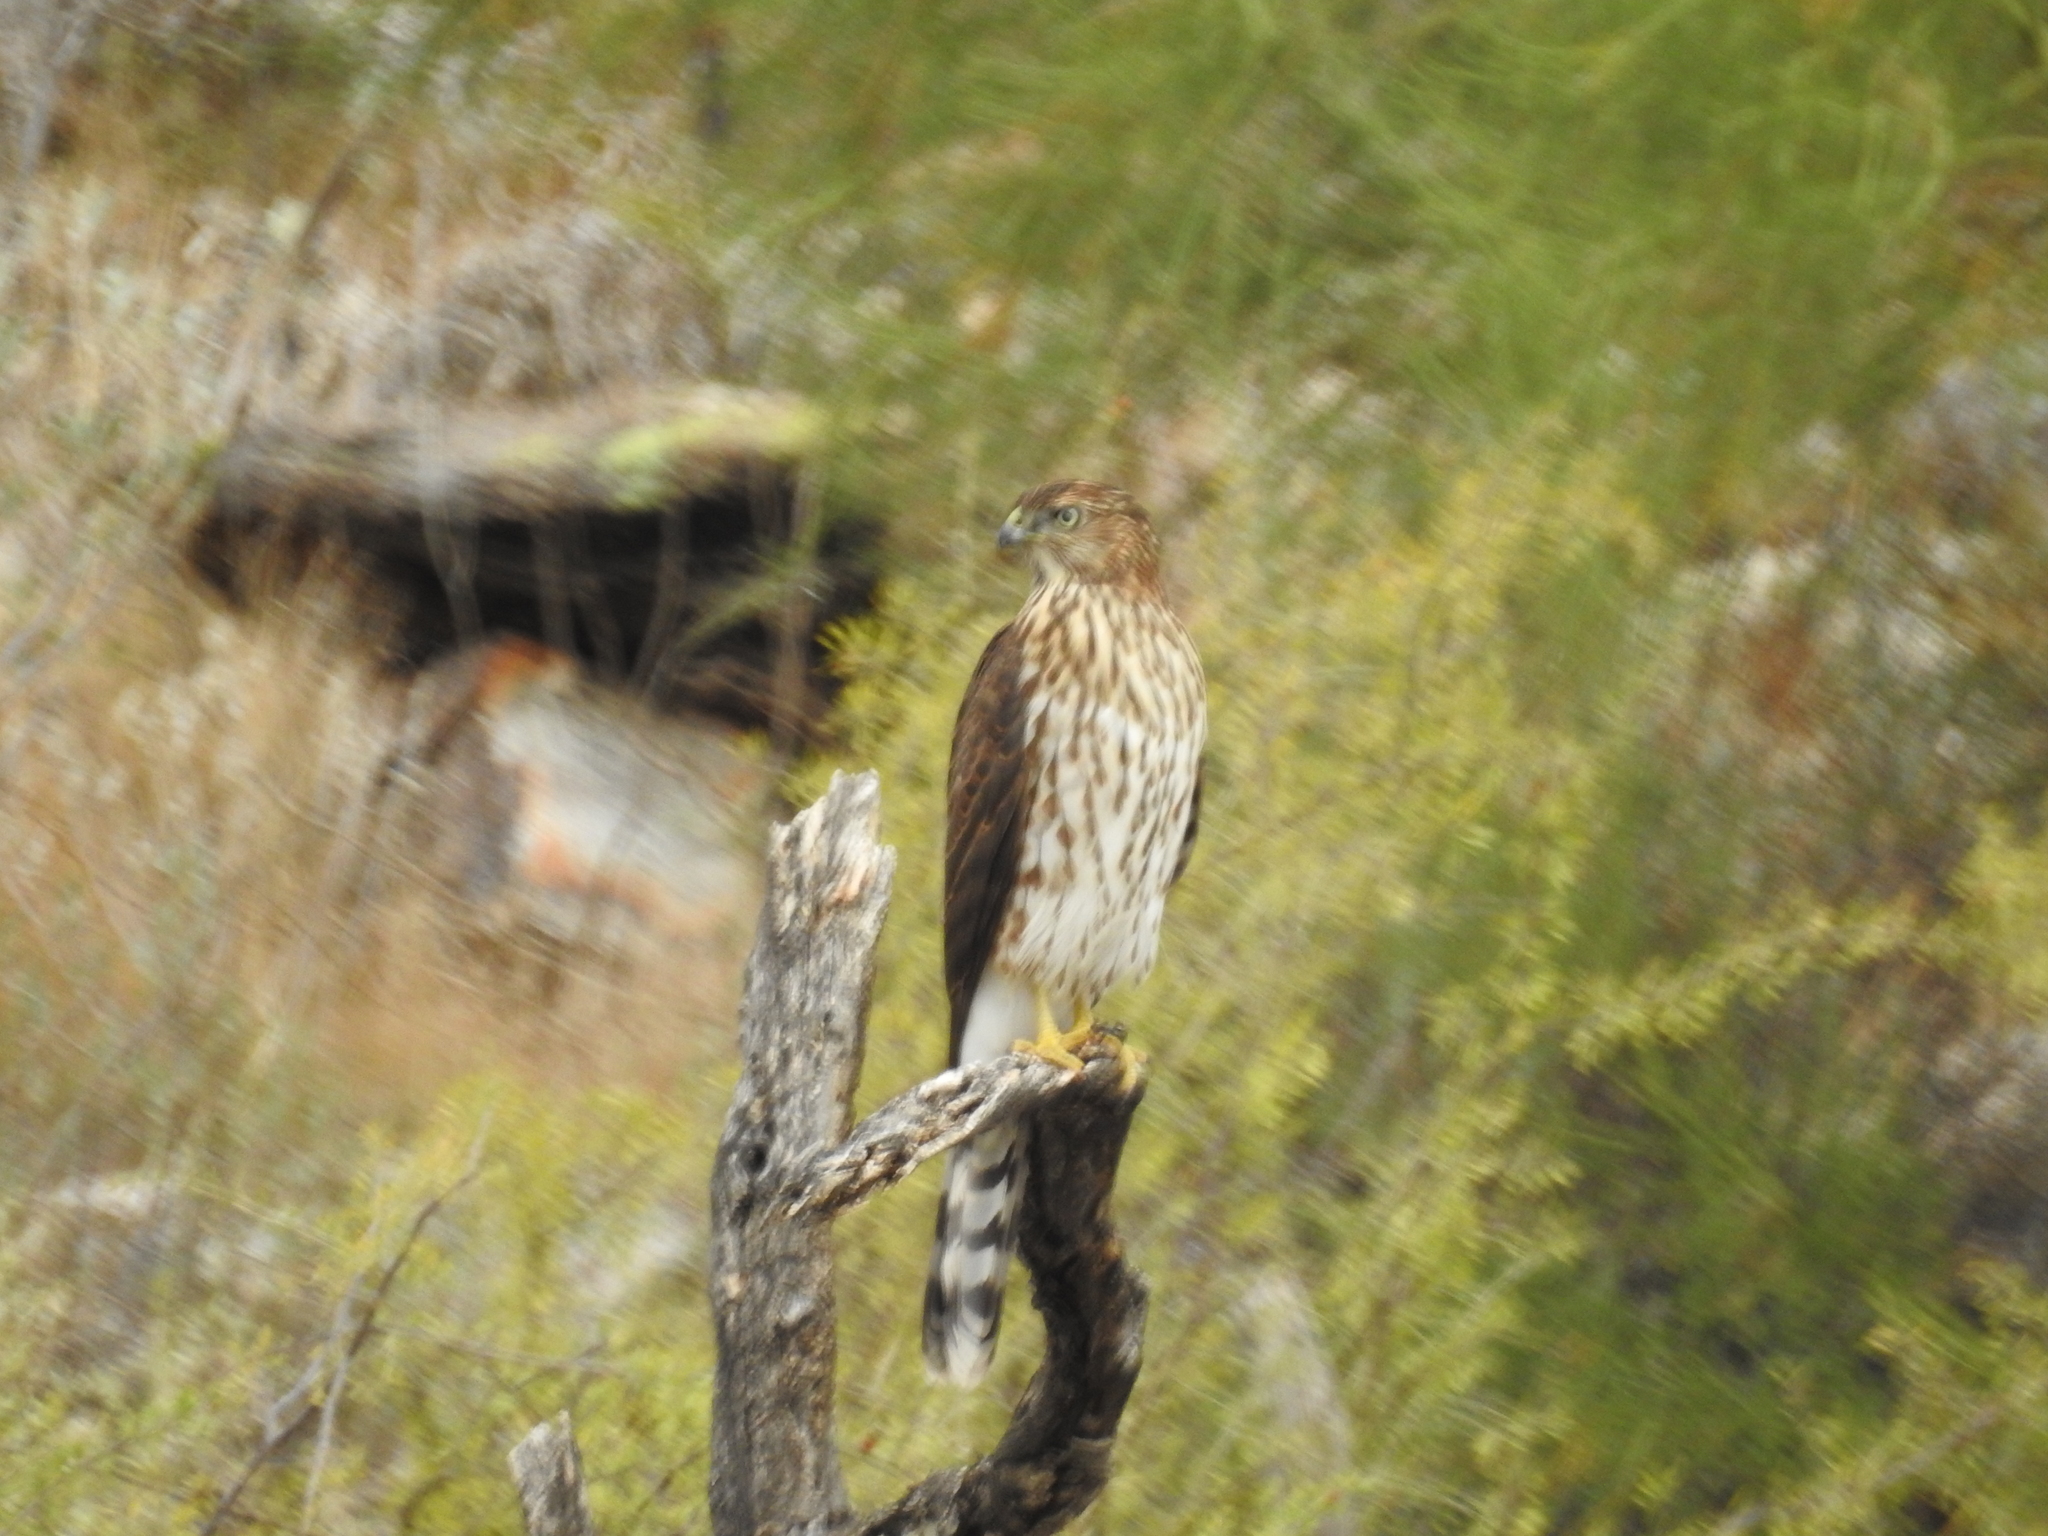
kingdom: Animalia
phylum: Chordata
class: Aves
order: Accipitriformes
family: Accipitridae
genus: Accipiter
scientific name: Accipiter cooperii
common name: Cooper's hawk
